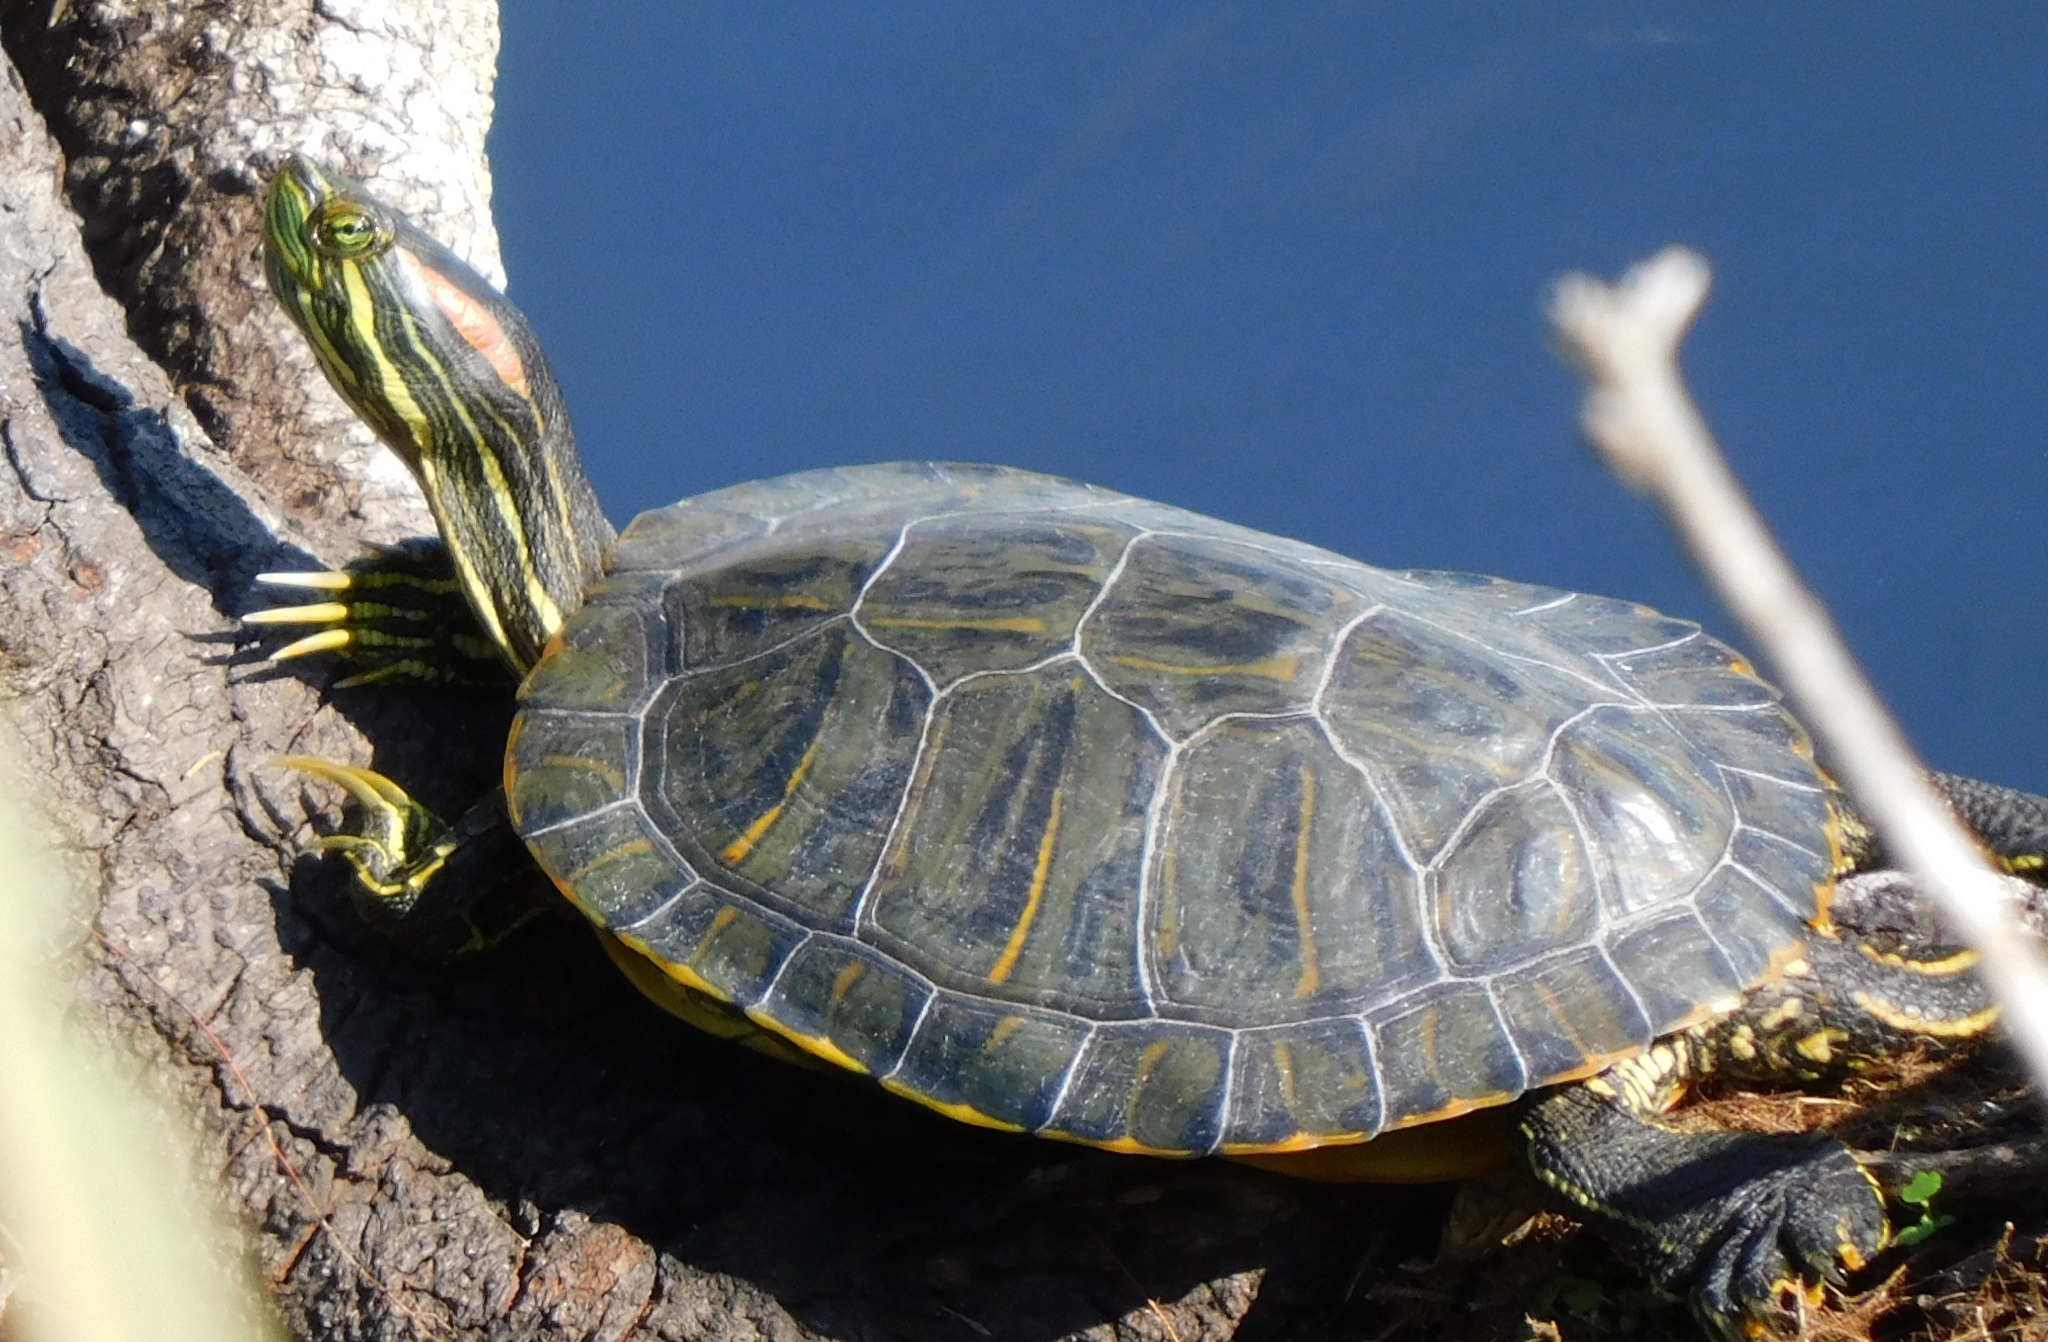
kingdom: Animalia
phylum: Chordata
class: Testudines
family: Emydidae
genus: Trachemys
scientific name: Trachemys scripta
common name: Slider
